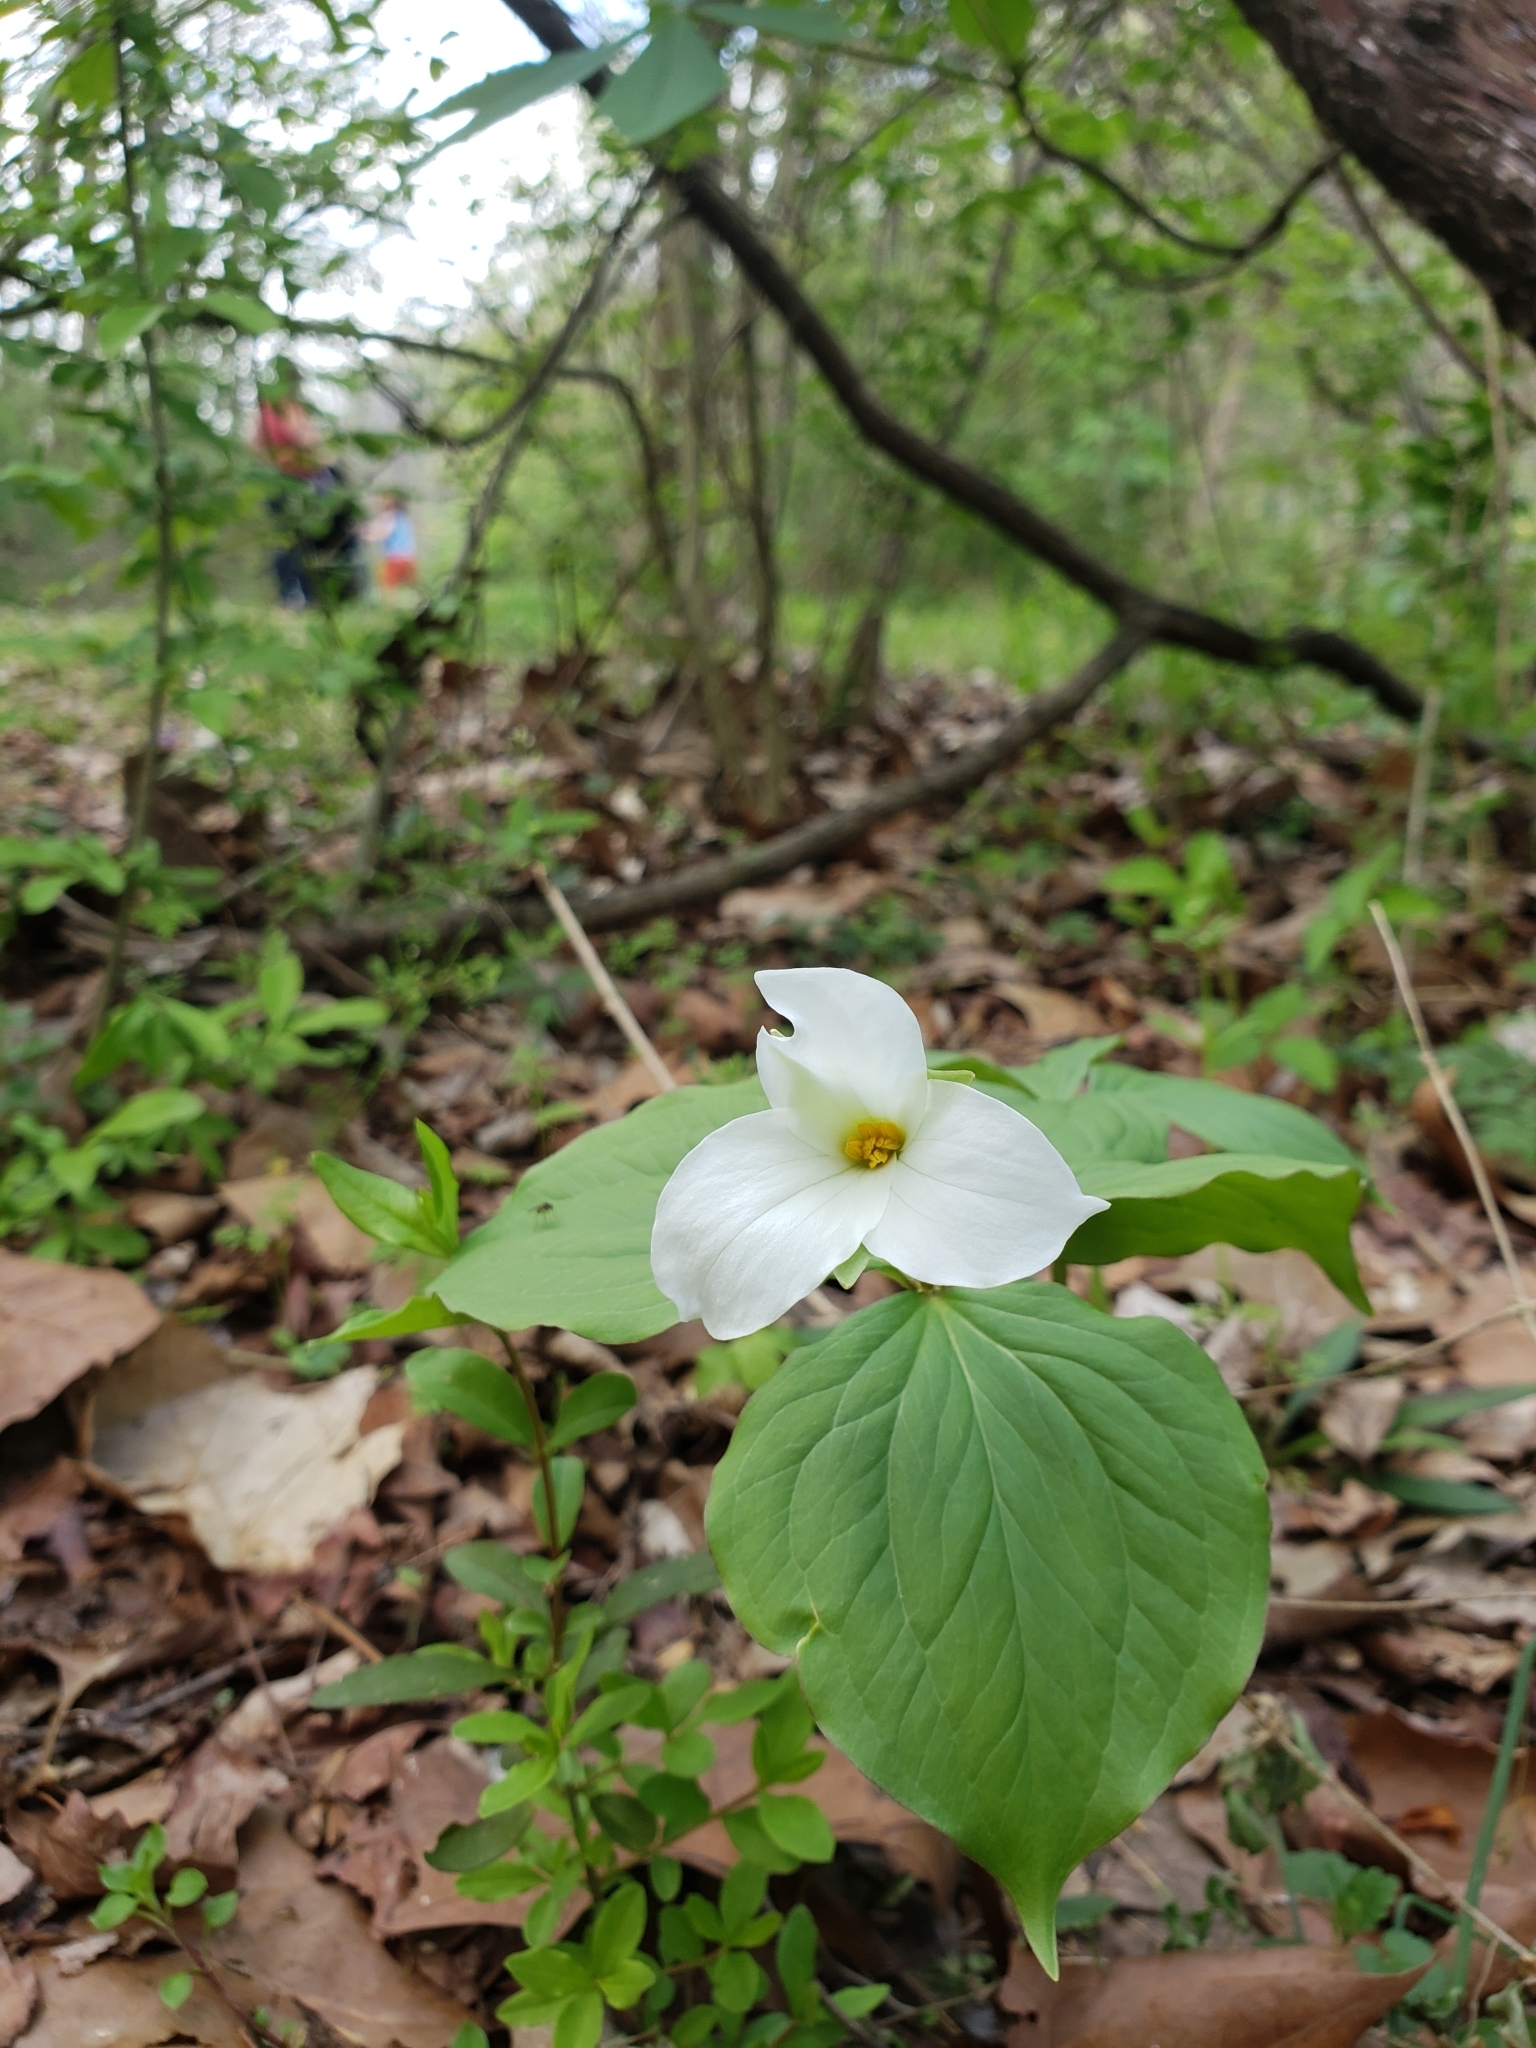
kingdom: Plantae
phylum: Tracheophyta
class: Liliopsida
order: Liliales
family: Melanthiaceae
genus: Trillium
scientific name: Trillium grandiflorum
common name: Great white trillium
